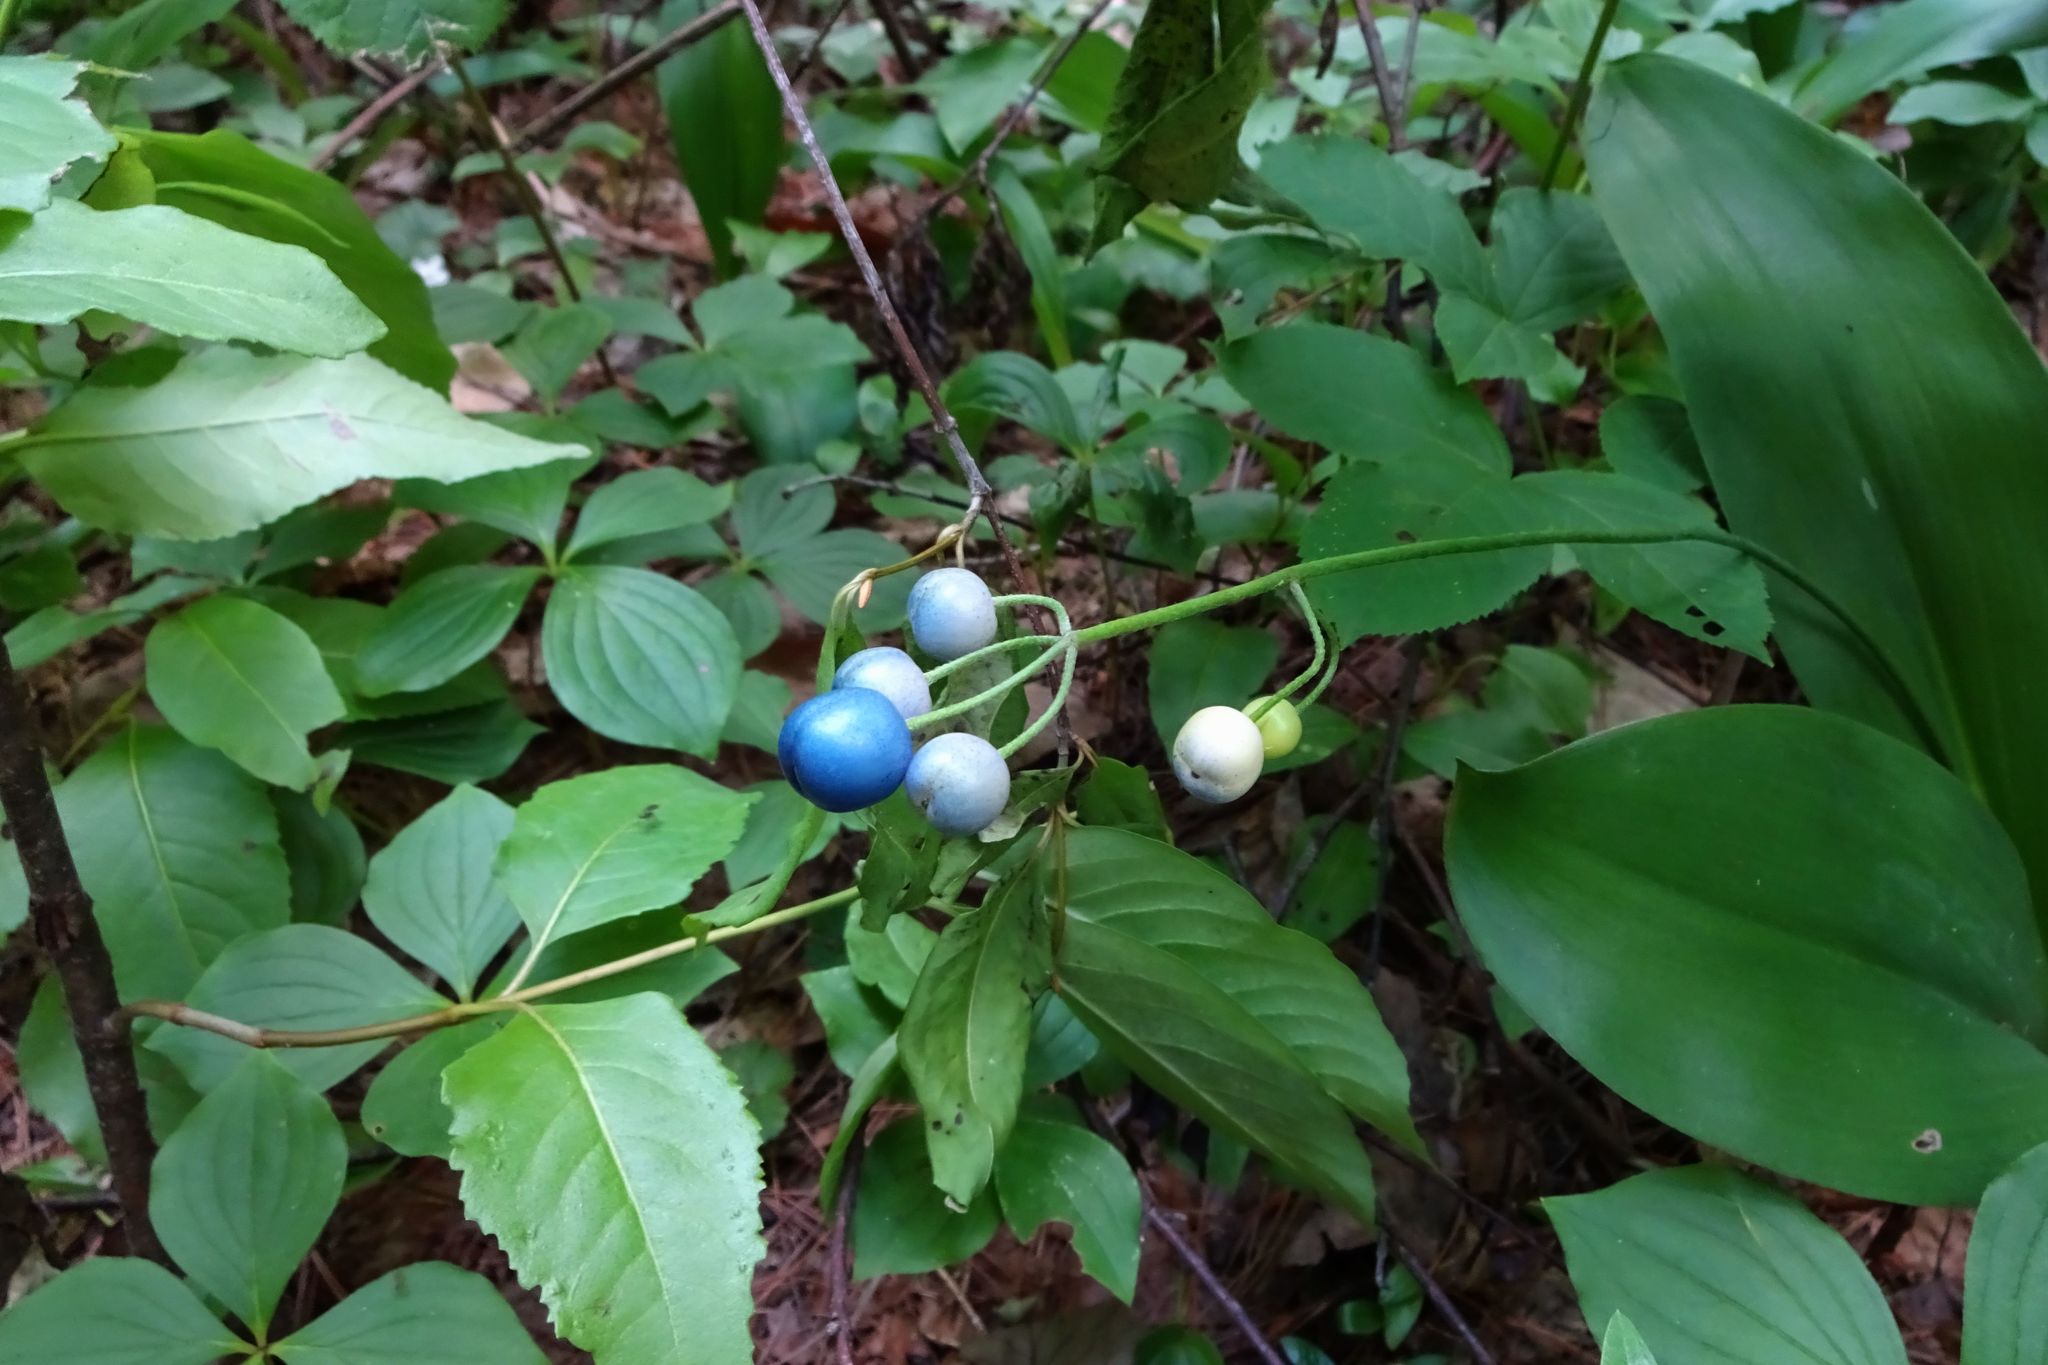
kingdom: Plantae
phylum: Tracheophyta
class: Liliopsida
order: Liliales
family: Liliaceae
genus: Clintonia
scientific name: Clintonia borealis
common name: Yellow clintonia
